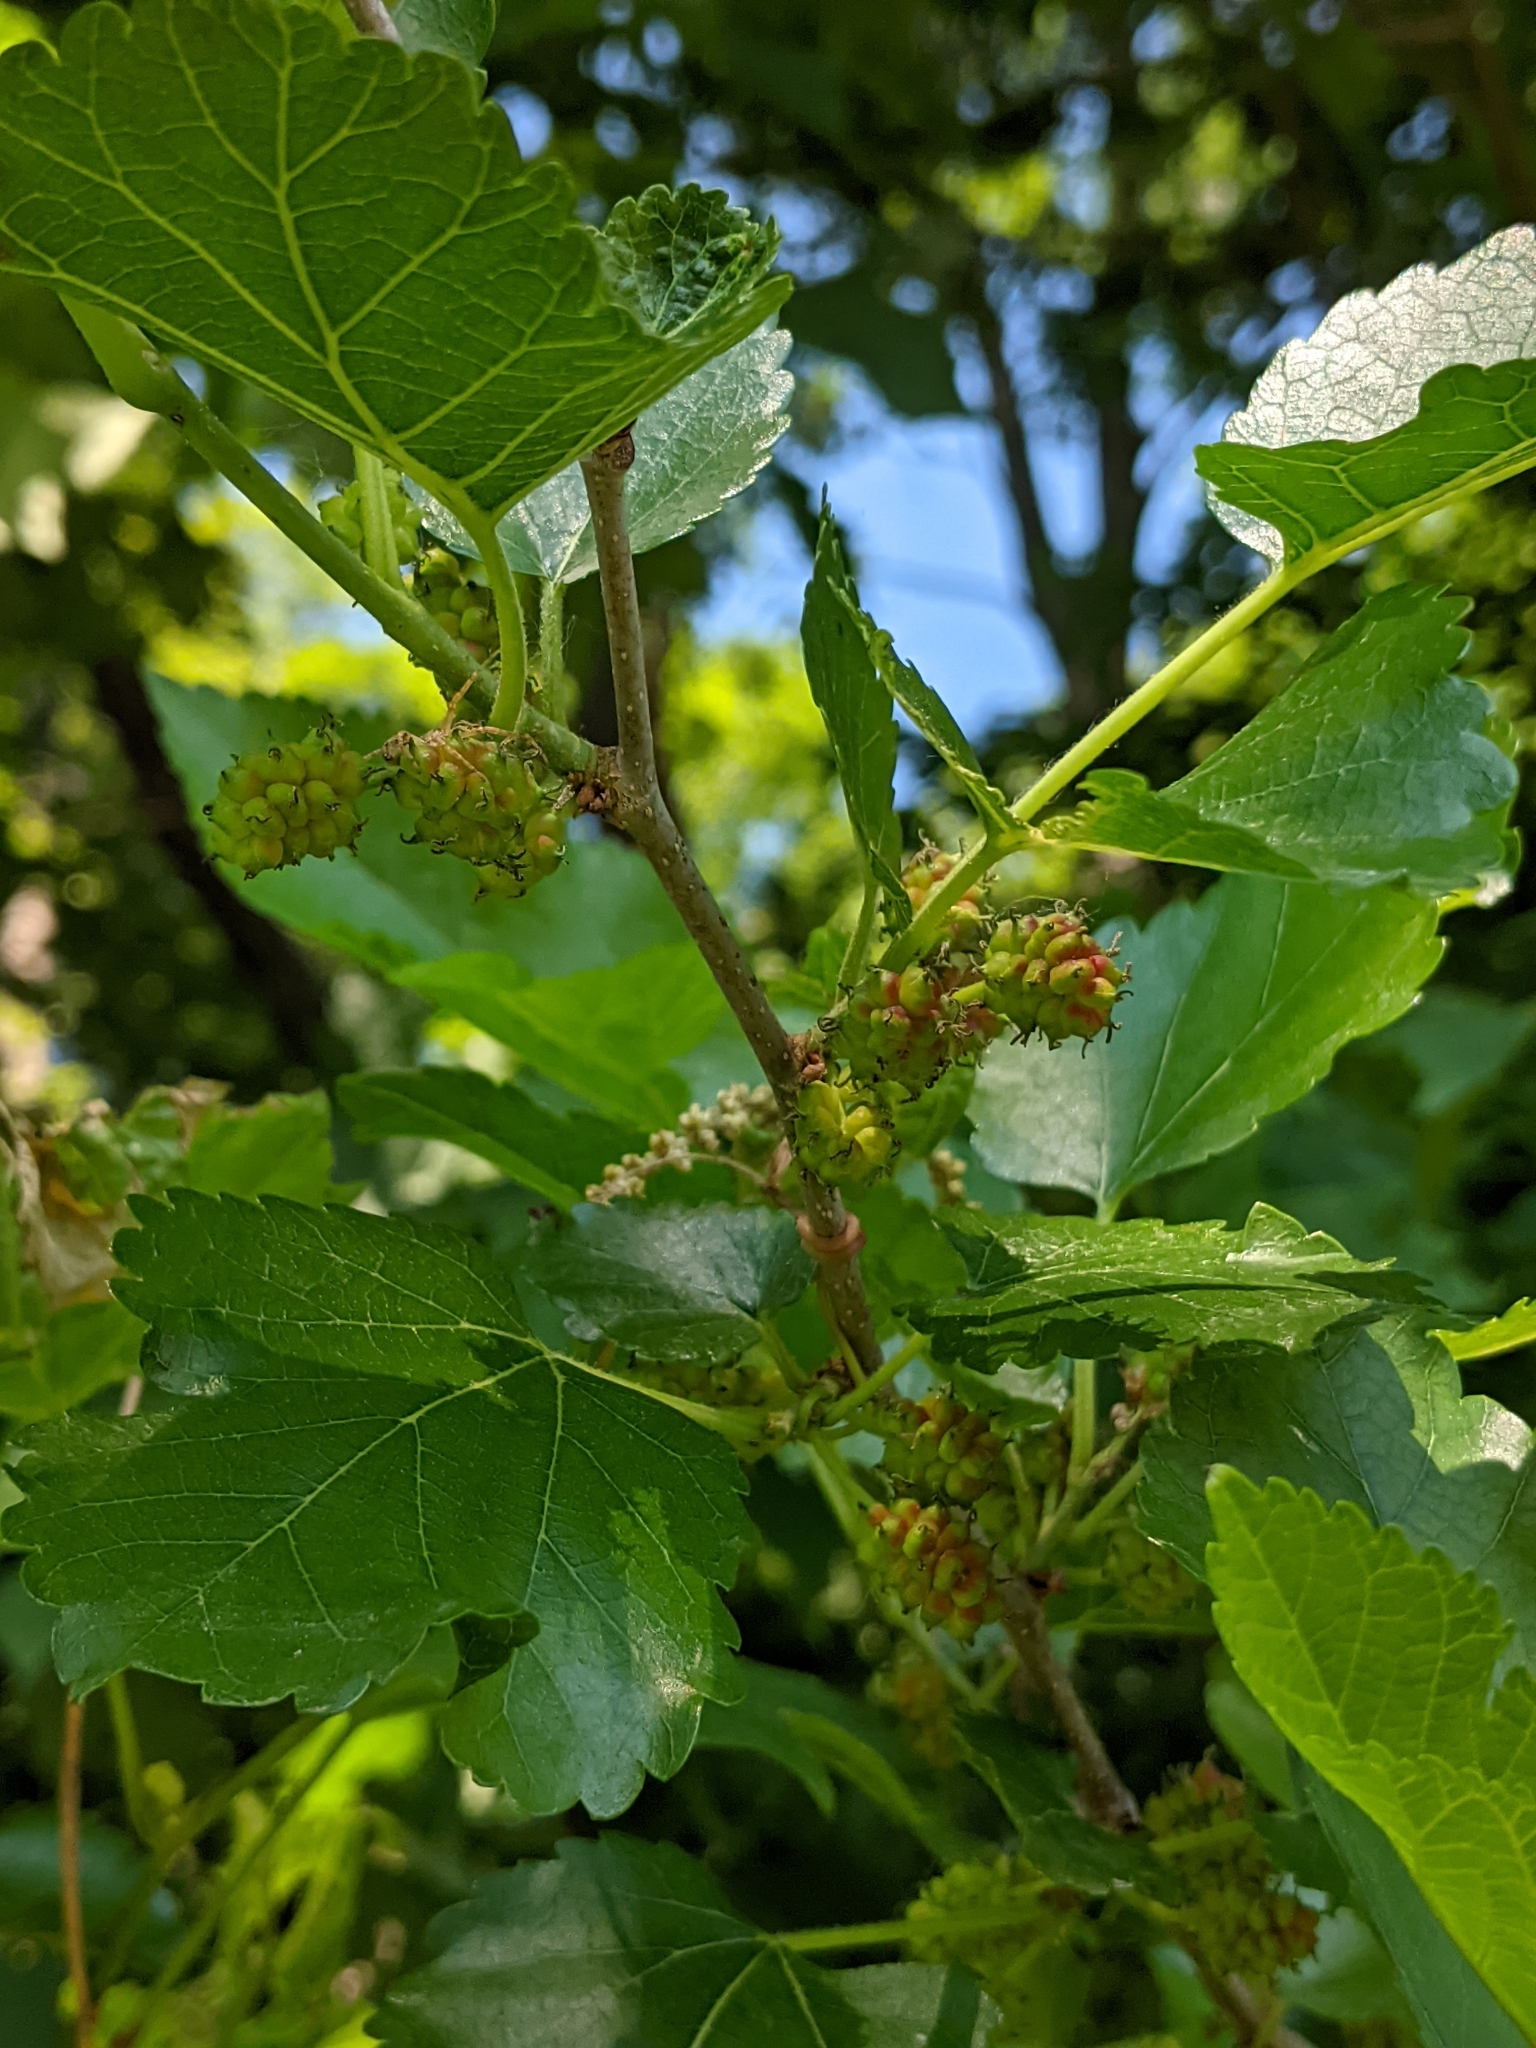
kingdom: Plantae
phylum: Tracheophyta
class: Magnoliopsida
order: Rosales
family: Moraceae
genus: Morus
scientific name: Morus alba
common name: White mulberry
